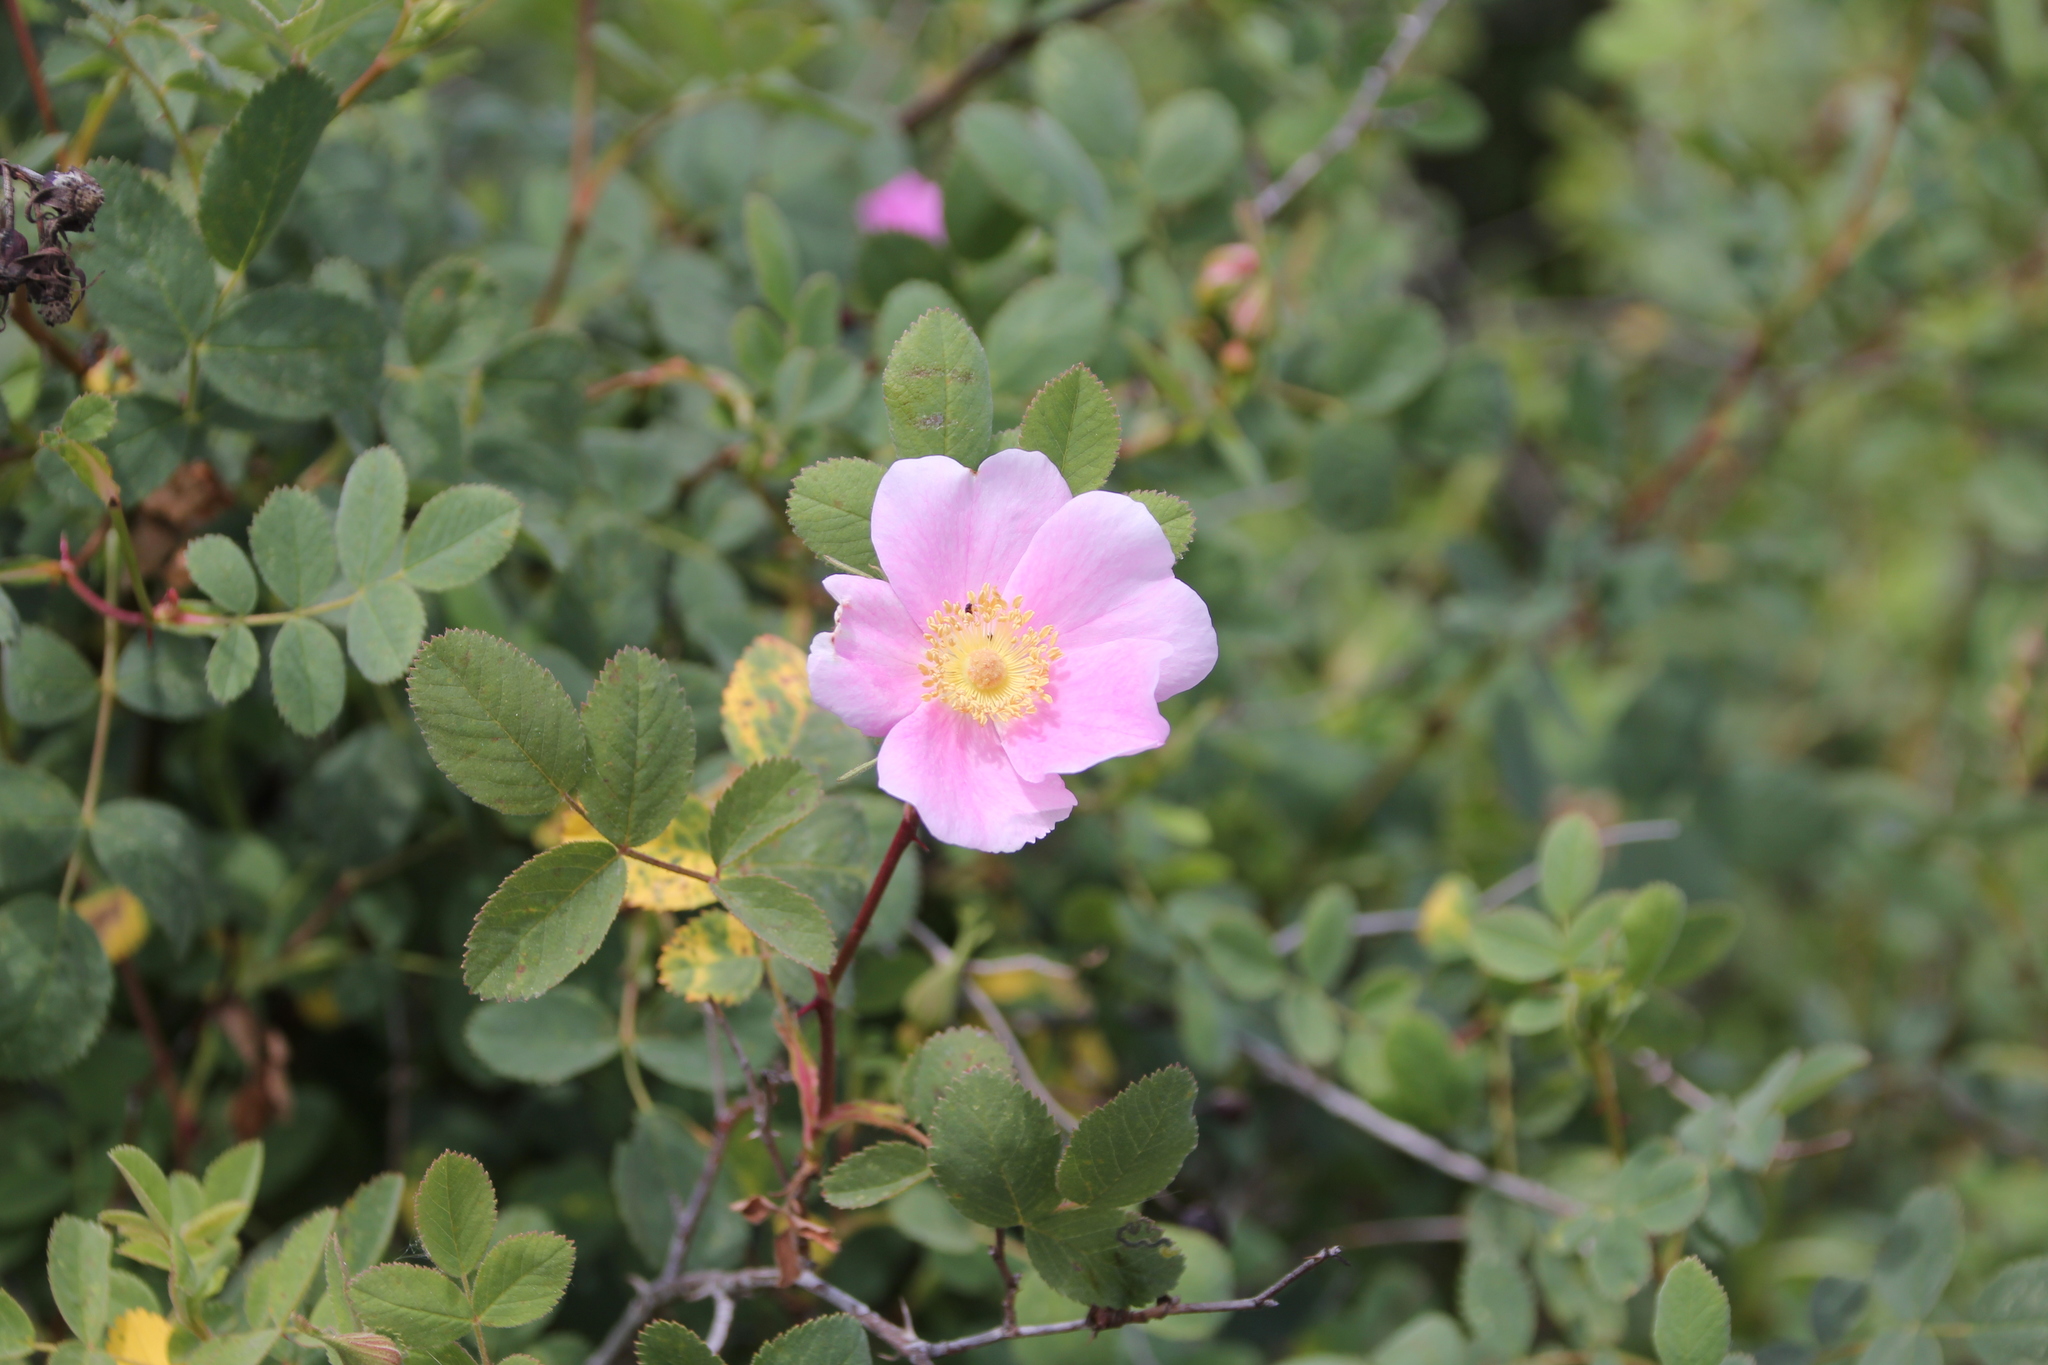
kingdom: Plantae
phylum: Tracheophyta
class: Magnoliopsida
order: Rosales
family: Rosaceae
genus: Rosa
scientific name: Rosa californica
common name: California rose
